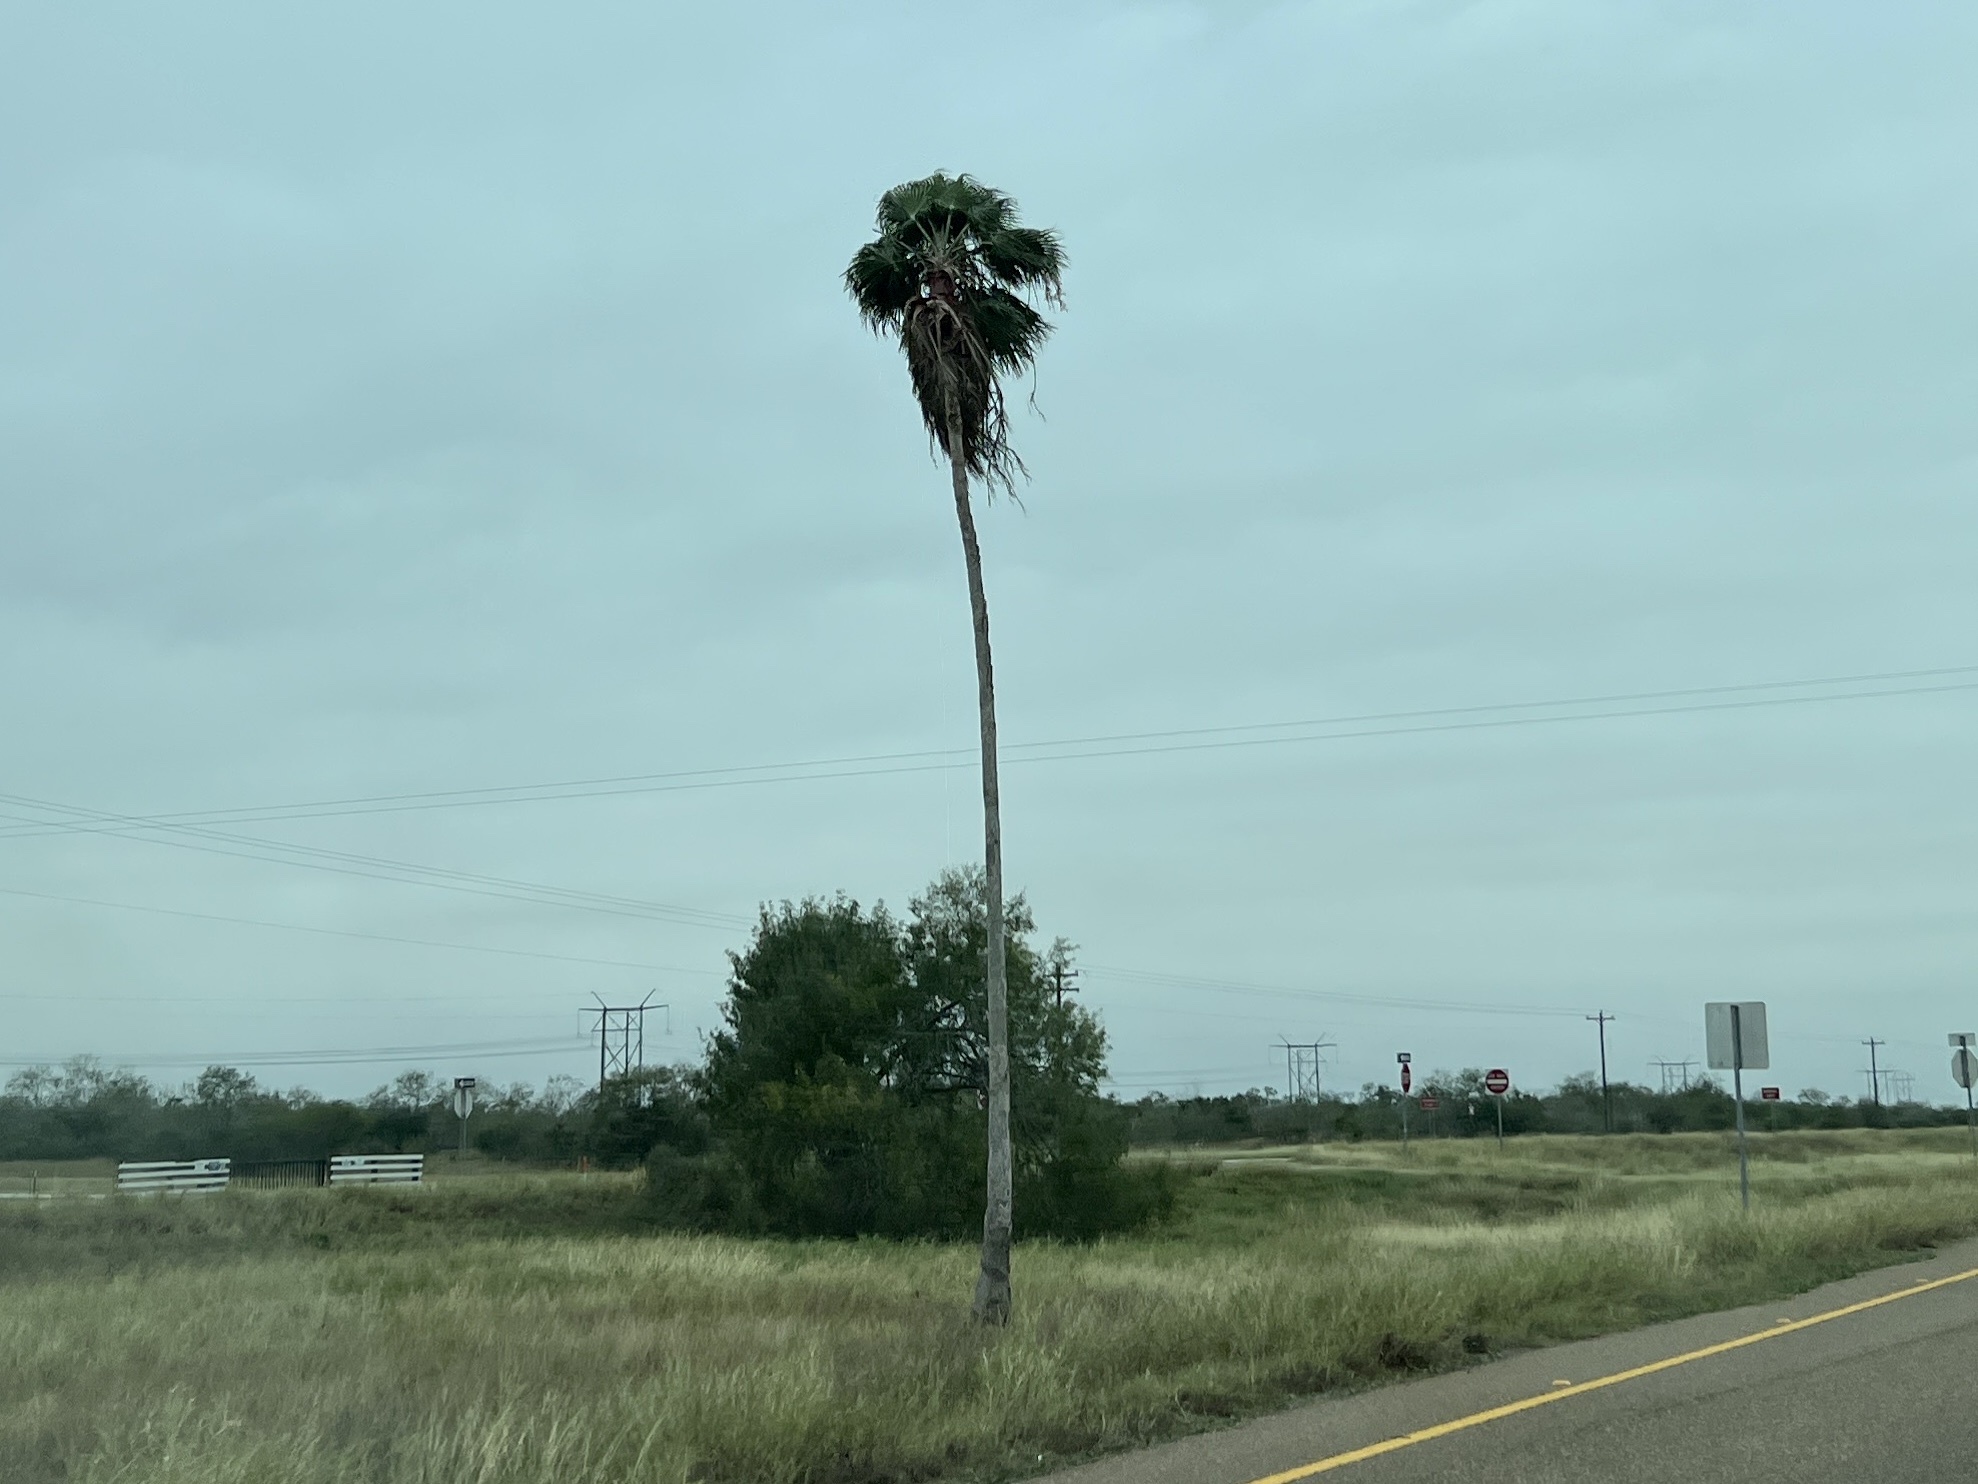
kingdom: Plantae
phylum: Tracheophyta
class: Liliopsida
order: Arecales
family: Arecaceae
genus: Washingtonia
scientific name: Washingtonia robusta
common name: Mexican fan palm
